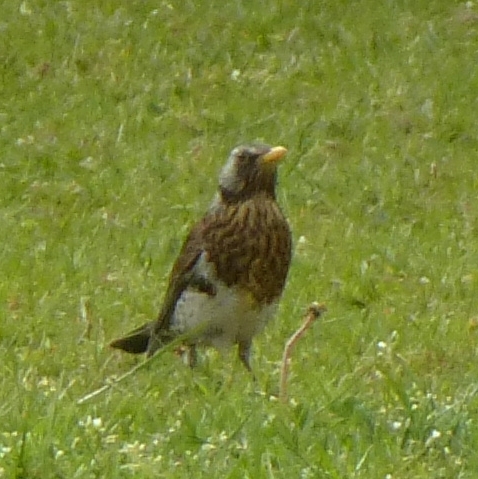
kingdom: Animalia
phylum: Chordata
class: Aves
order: Passeriformes
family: Turdidae
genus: Turdus
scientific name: Turdus pilaris
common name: Fieldfare
